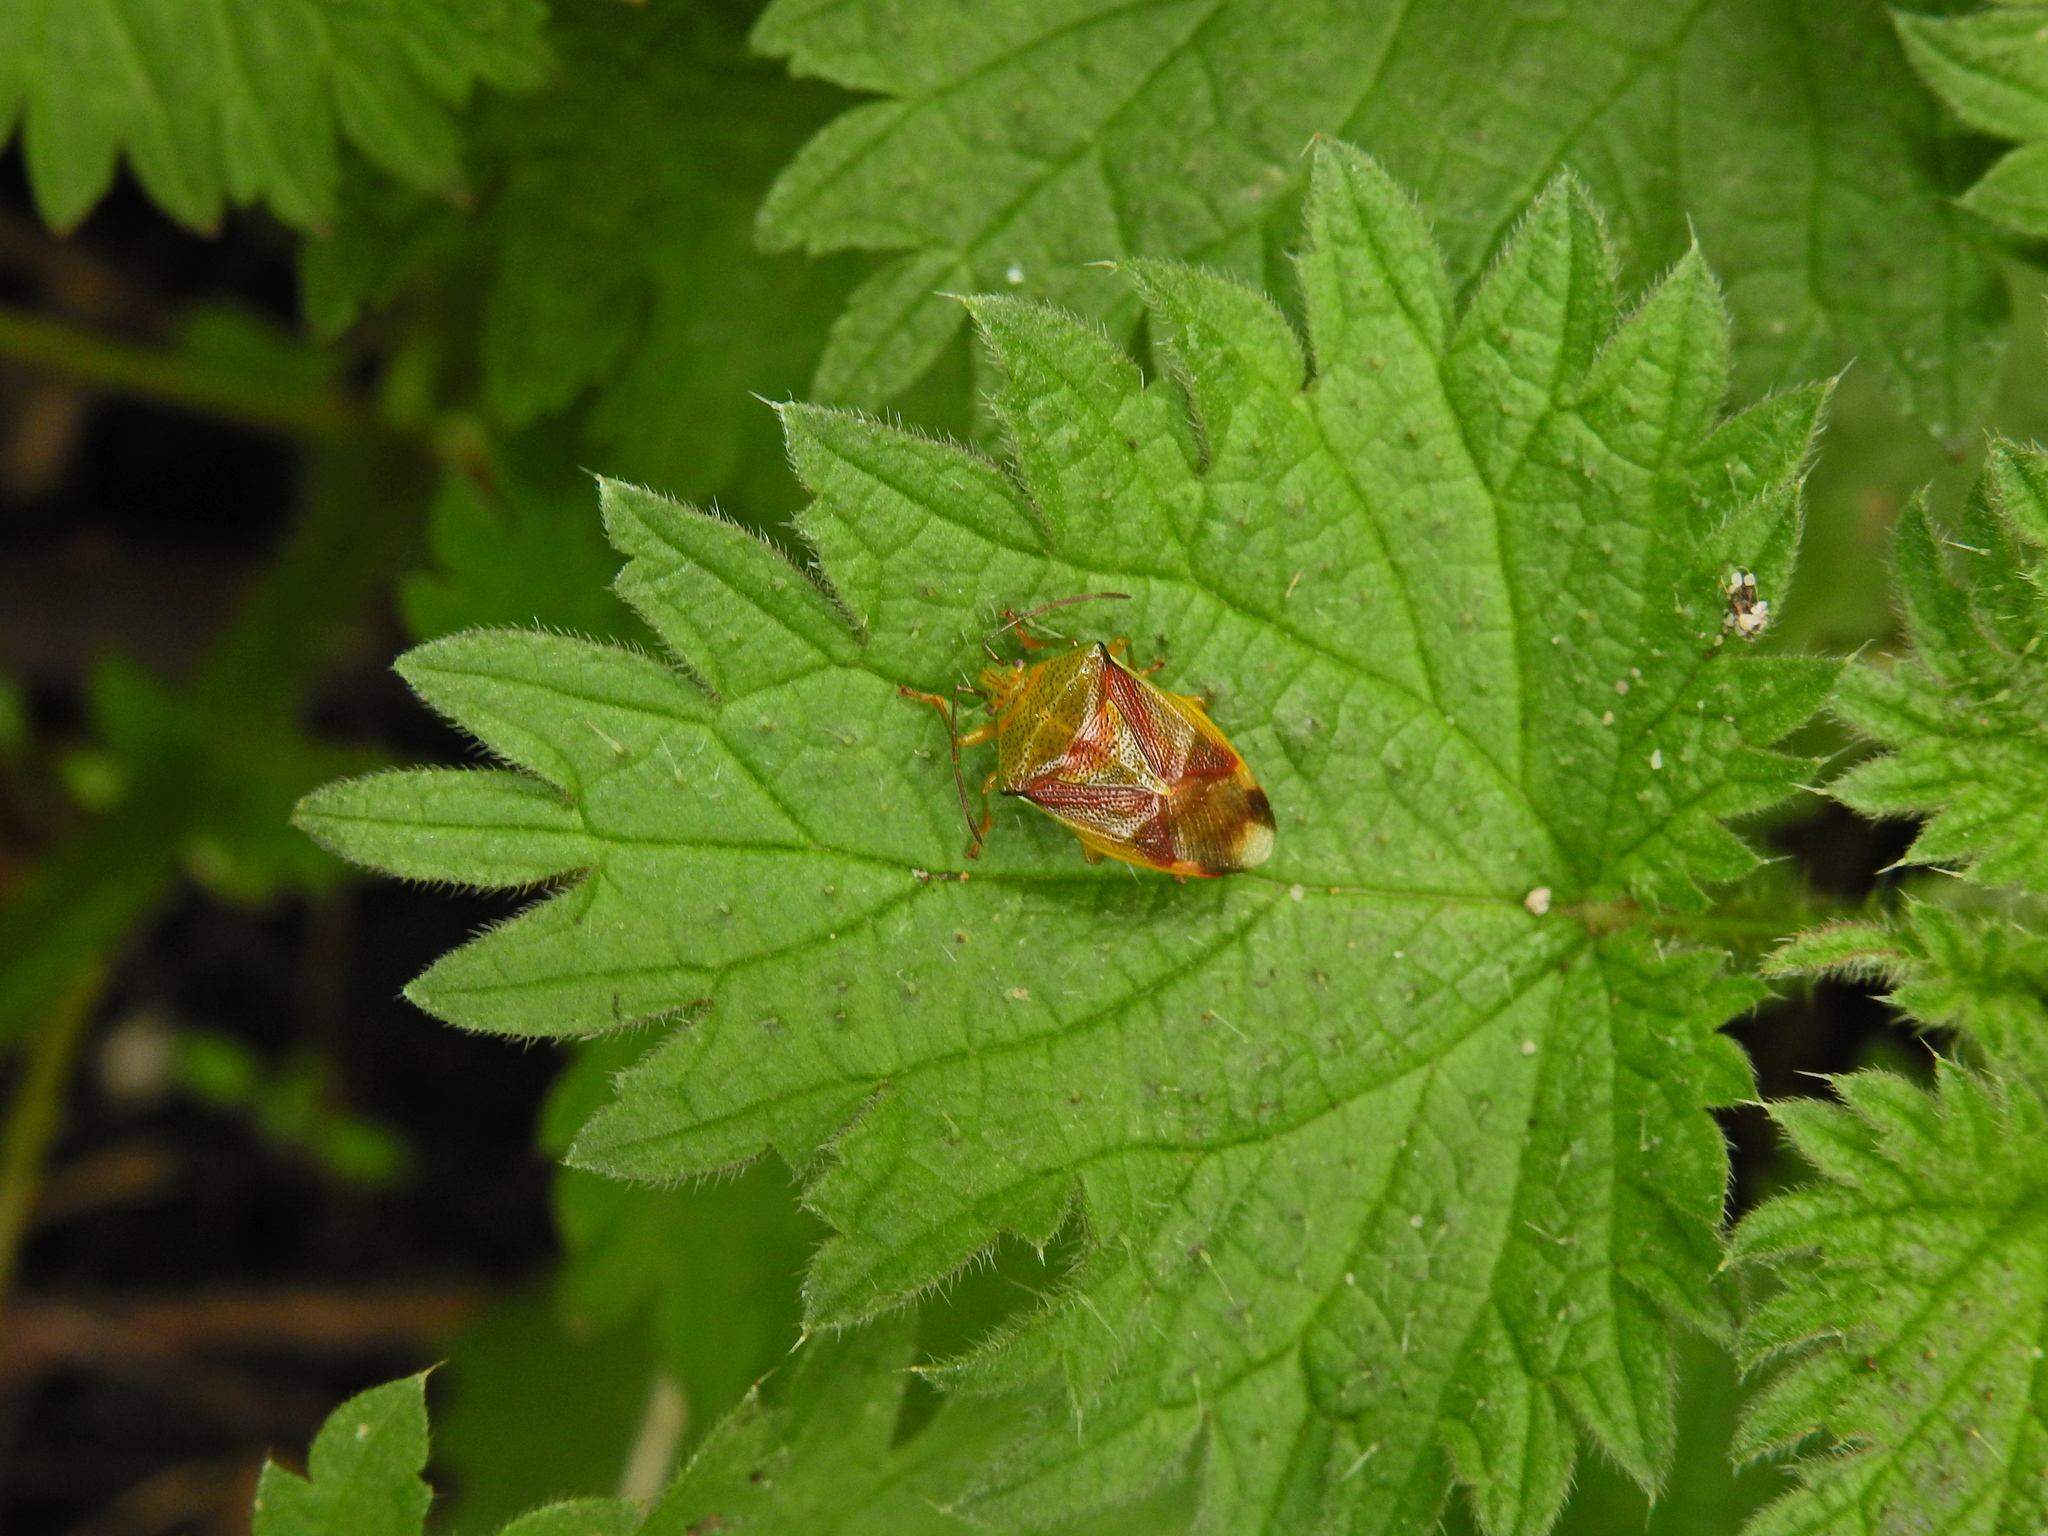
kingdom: Animalia
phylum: Arthropoda
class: Insecta
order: Hemiptera
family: Acanthosomatidae
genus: Elasmostethus
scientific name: Elasmostethus interstinctus
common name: Birch shieldbug
